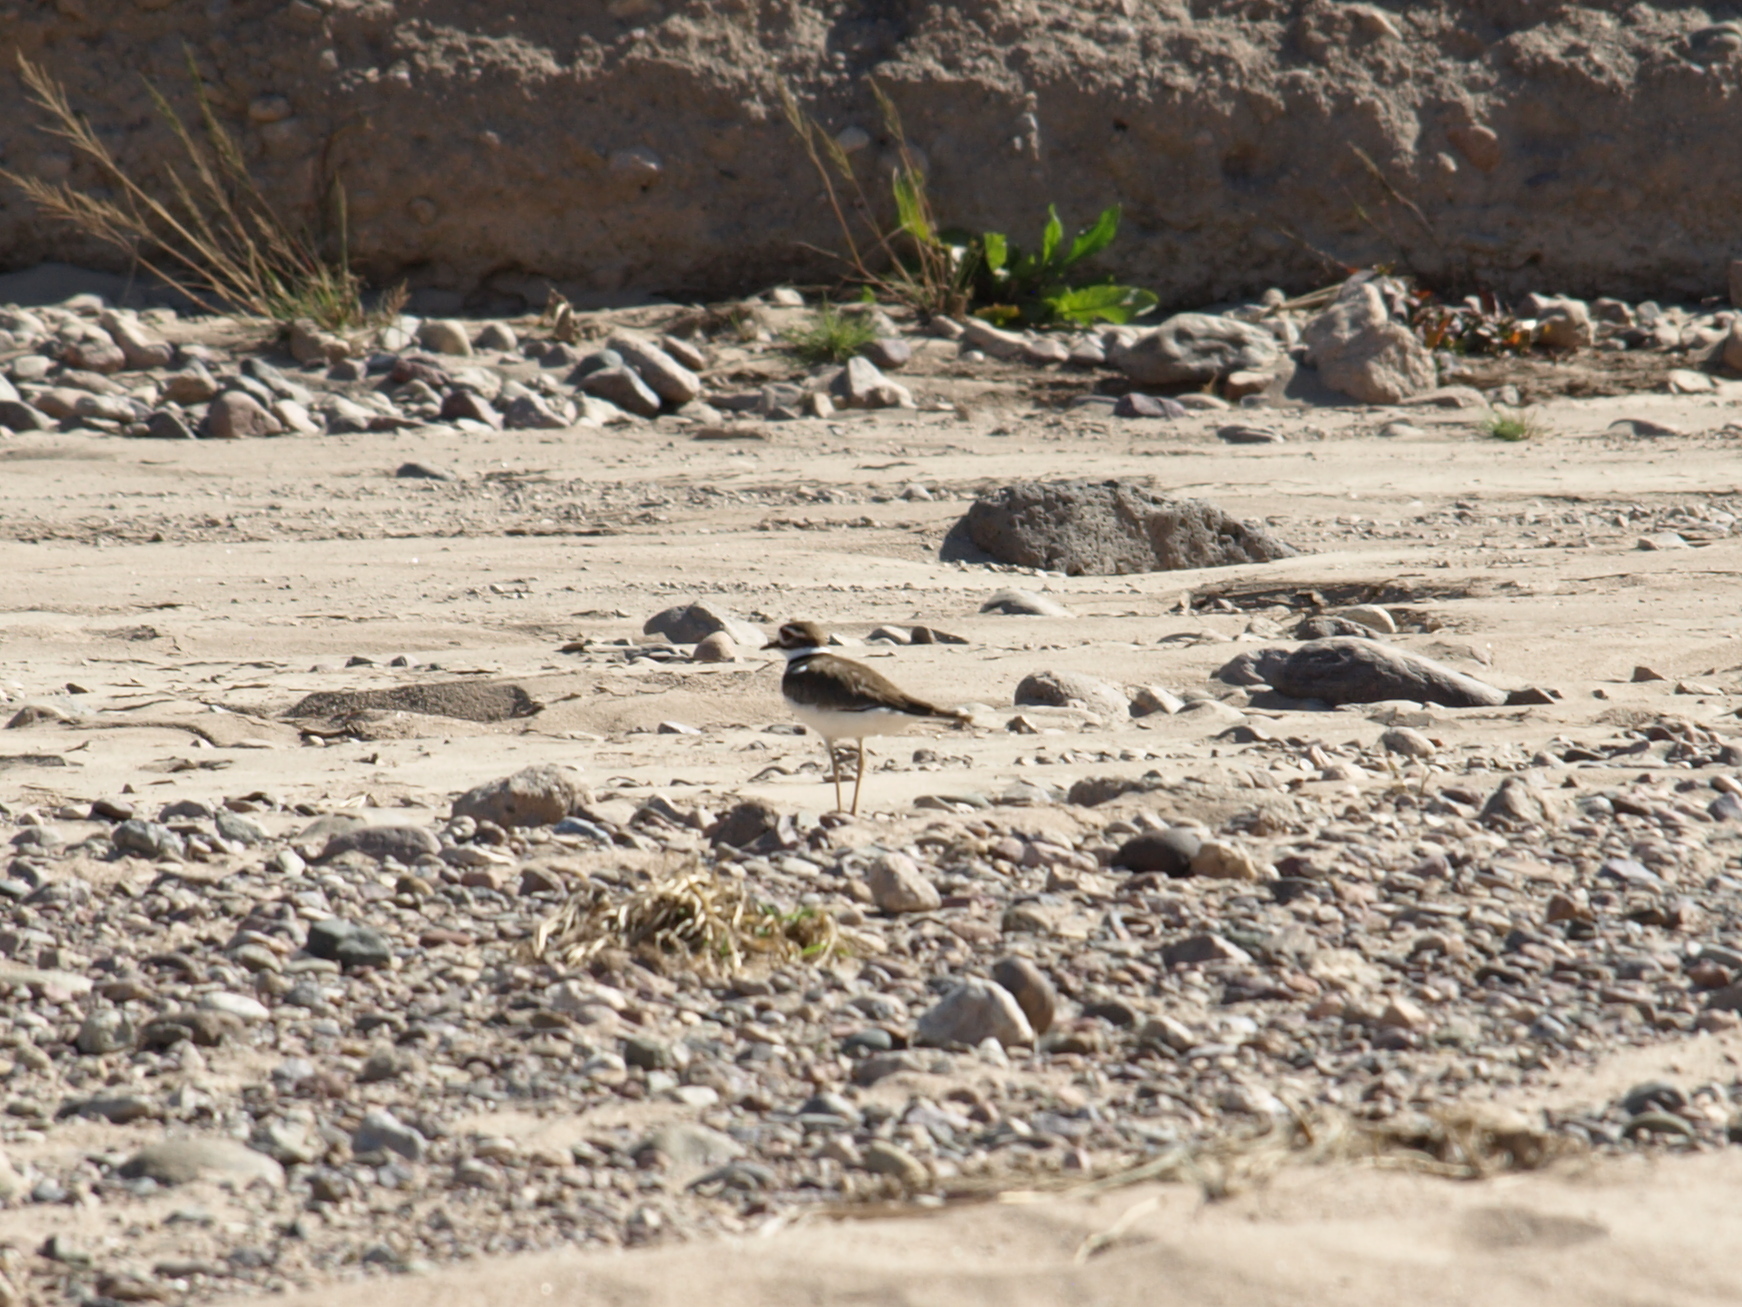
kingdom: Animalia
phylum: Chordata
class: Aves
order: Charadriiformes
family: Charadriidae
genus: Charadrius
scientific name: Charadrius vociferus
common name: Killdeer
